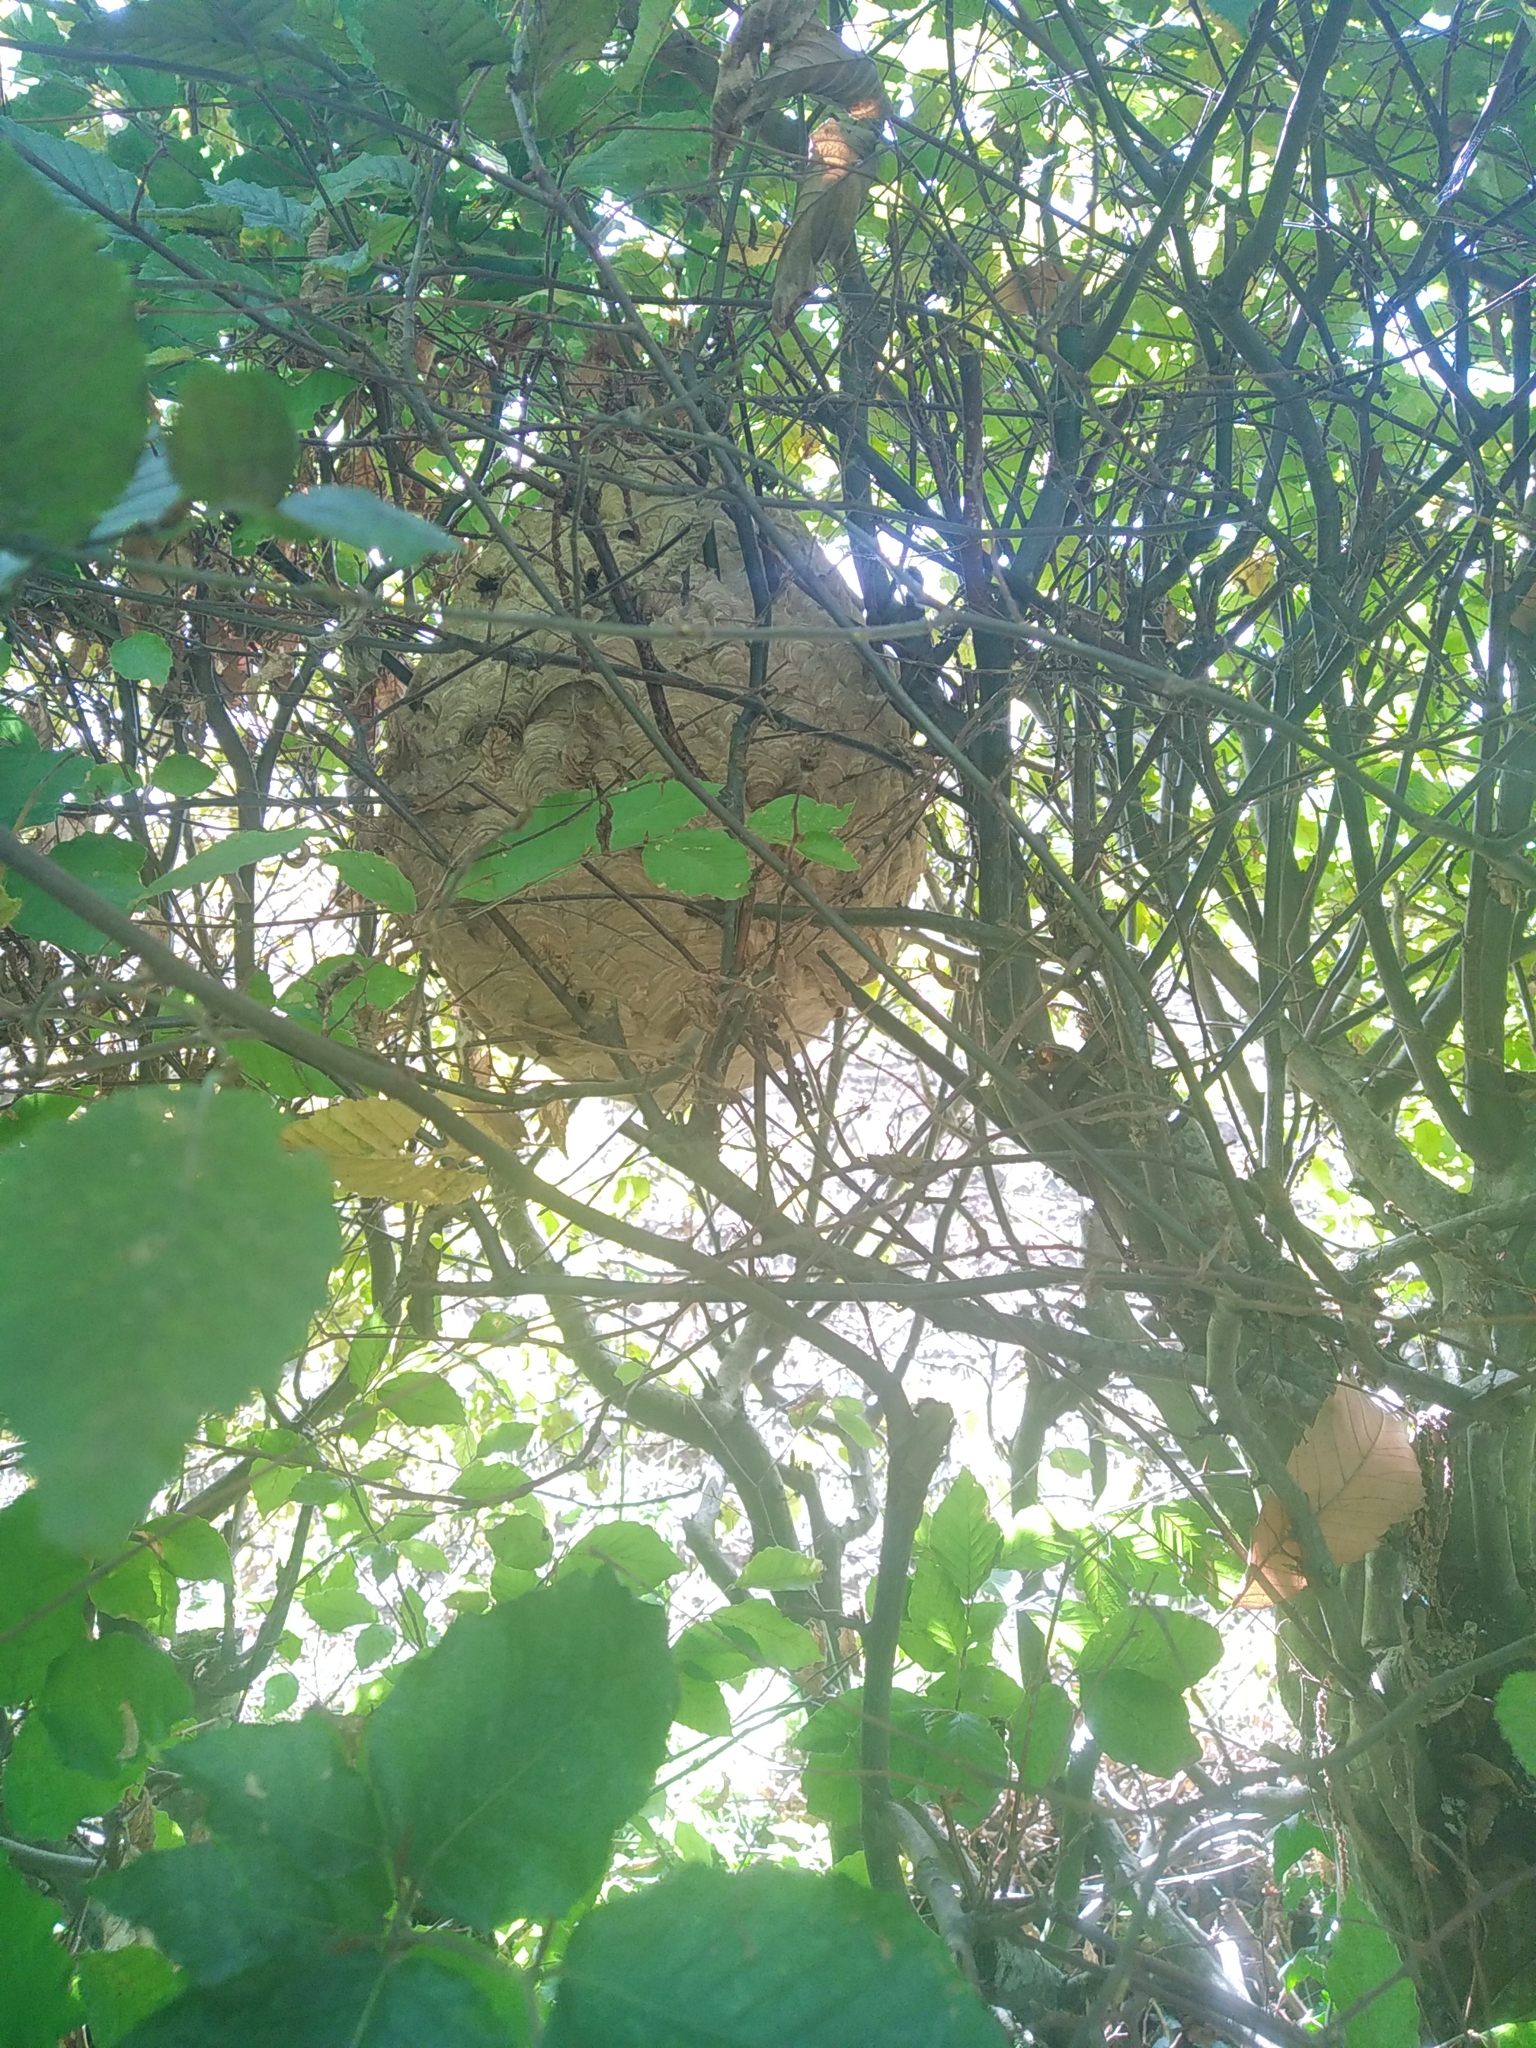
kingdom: Animalia
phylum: Arthropoda
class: Insecta
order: Hymenoptera
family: Vespidae
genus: Vespa
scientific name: Vespa velutina
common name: Asian hornet
